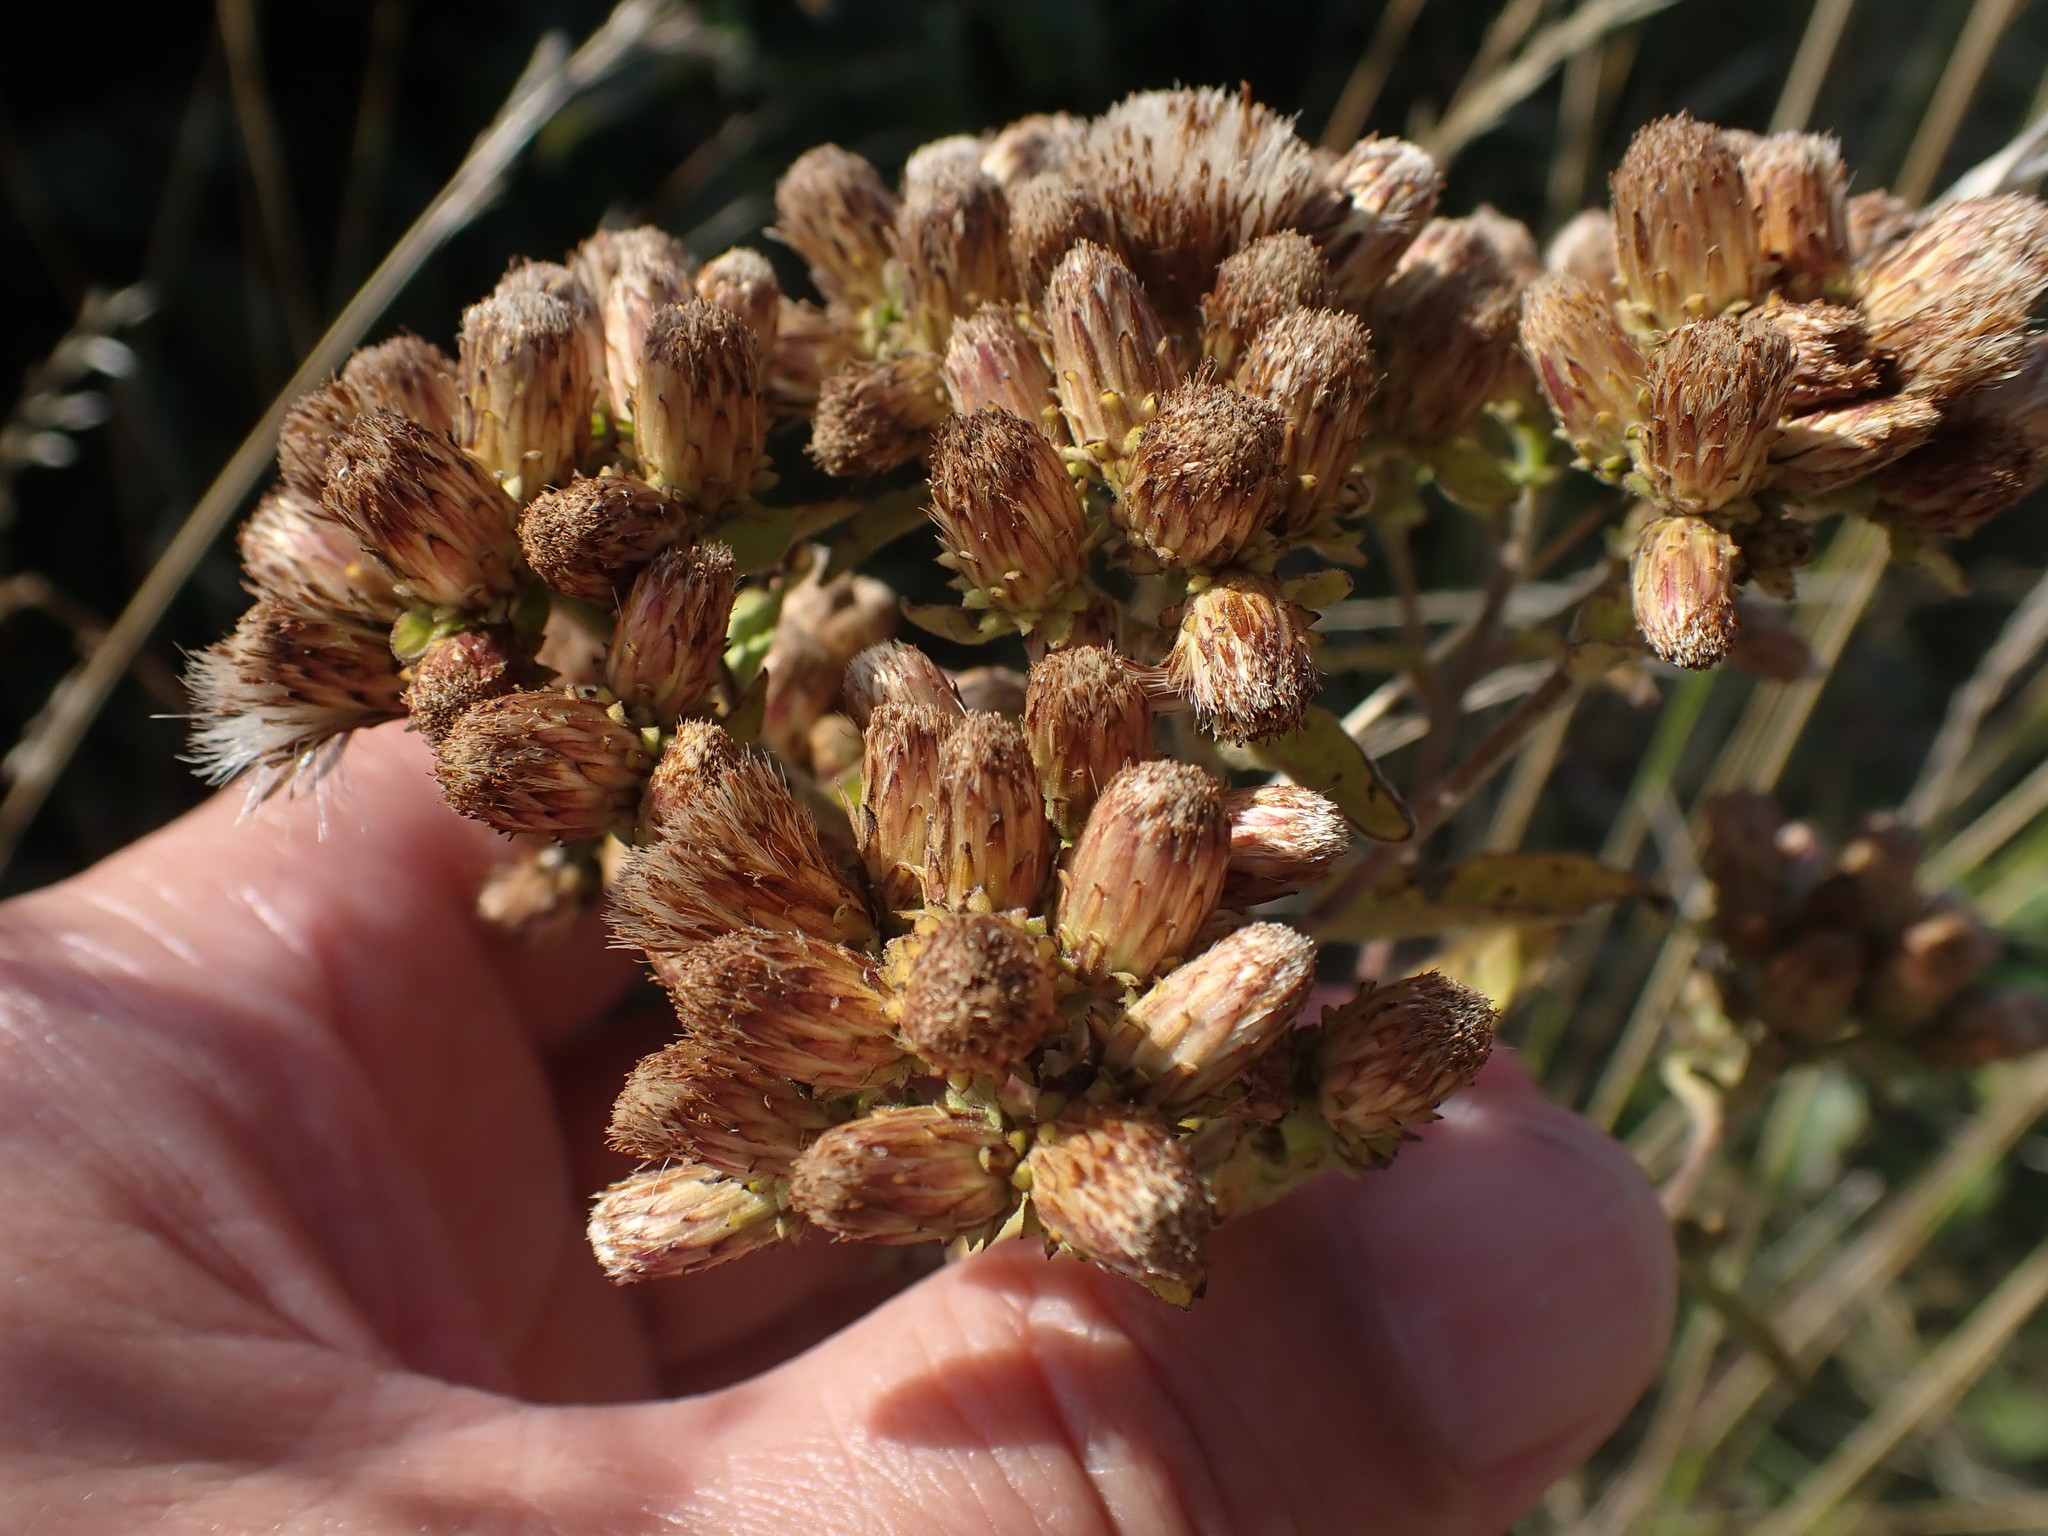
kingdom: Plantae
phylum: Tracheophyta
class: Magnoliopsida
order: Asterales
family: Asteraceae
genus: Pentanema
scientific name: Pentanema squarrosum
